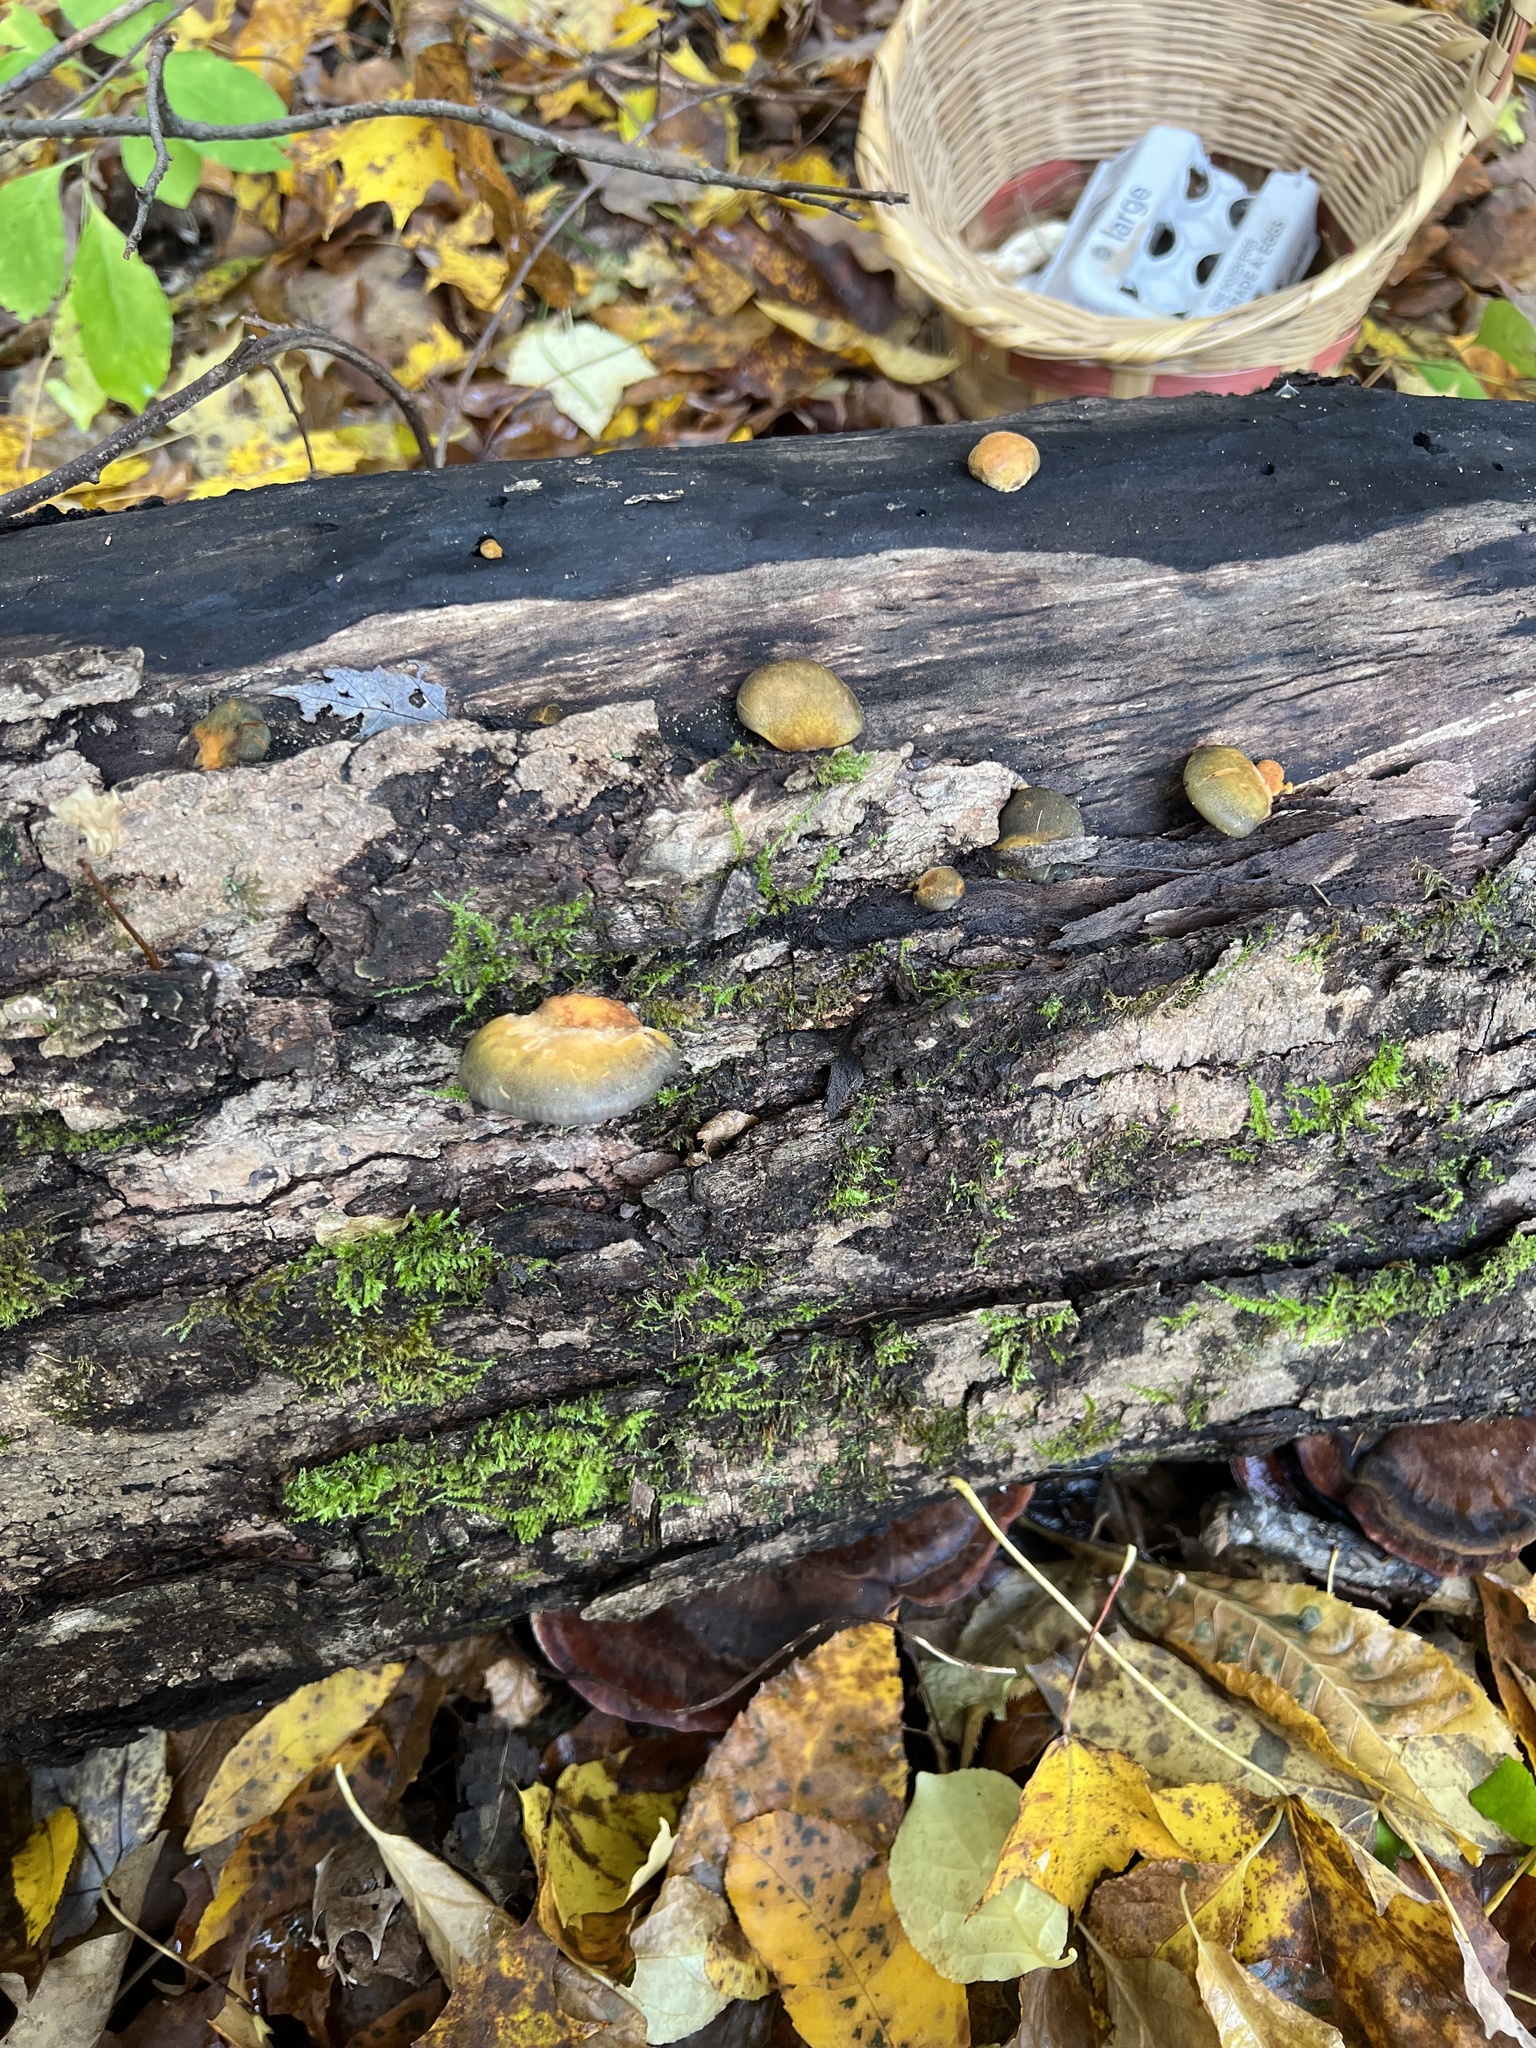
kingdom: Fungi
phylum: Basidiomycota
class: Agaricomycetes
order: Agaricales
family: Sarcomyxaceae
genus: Sarcomyxa
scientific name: Sarcomyxa serotina
